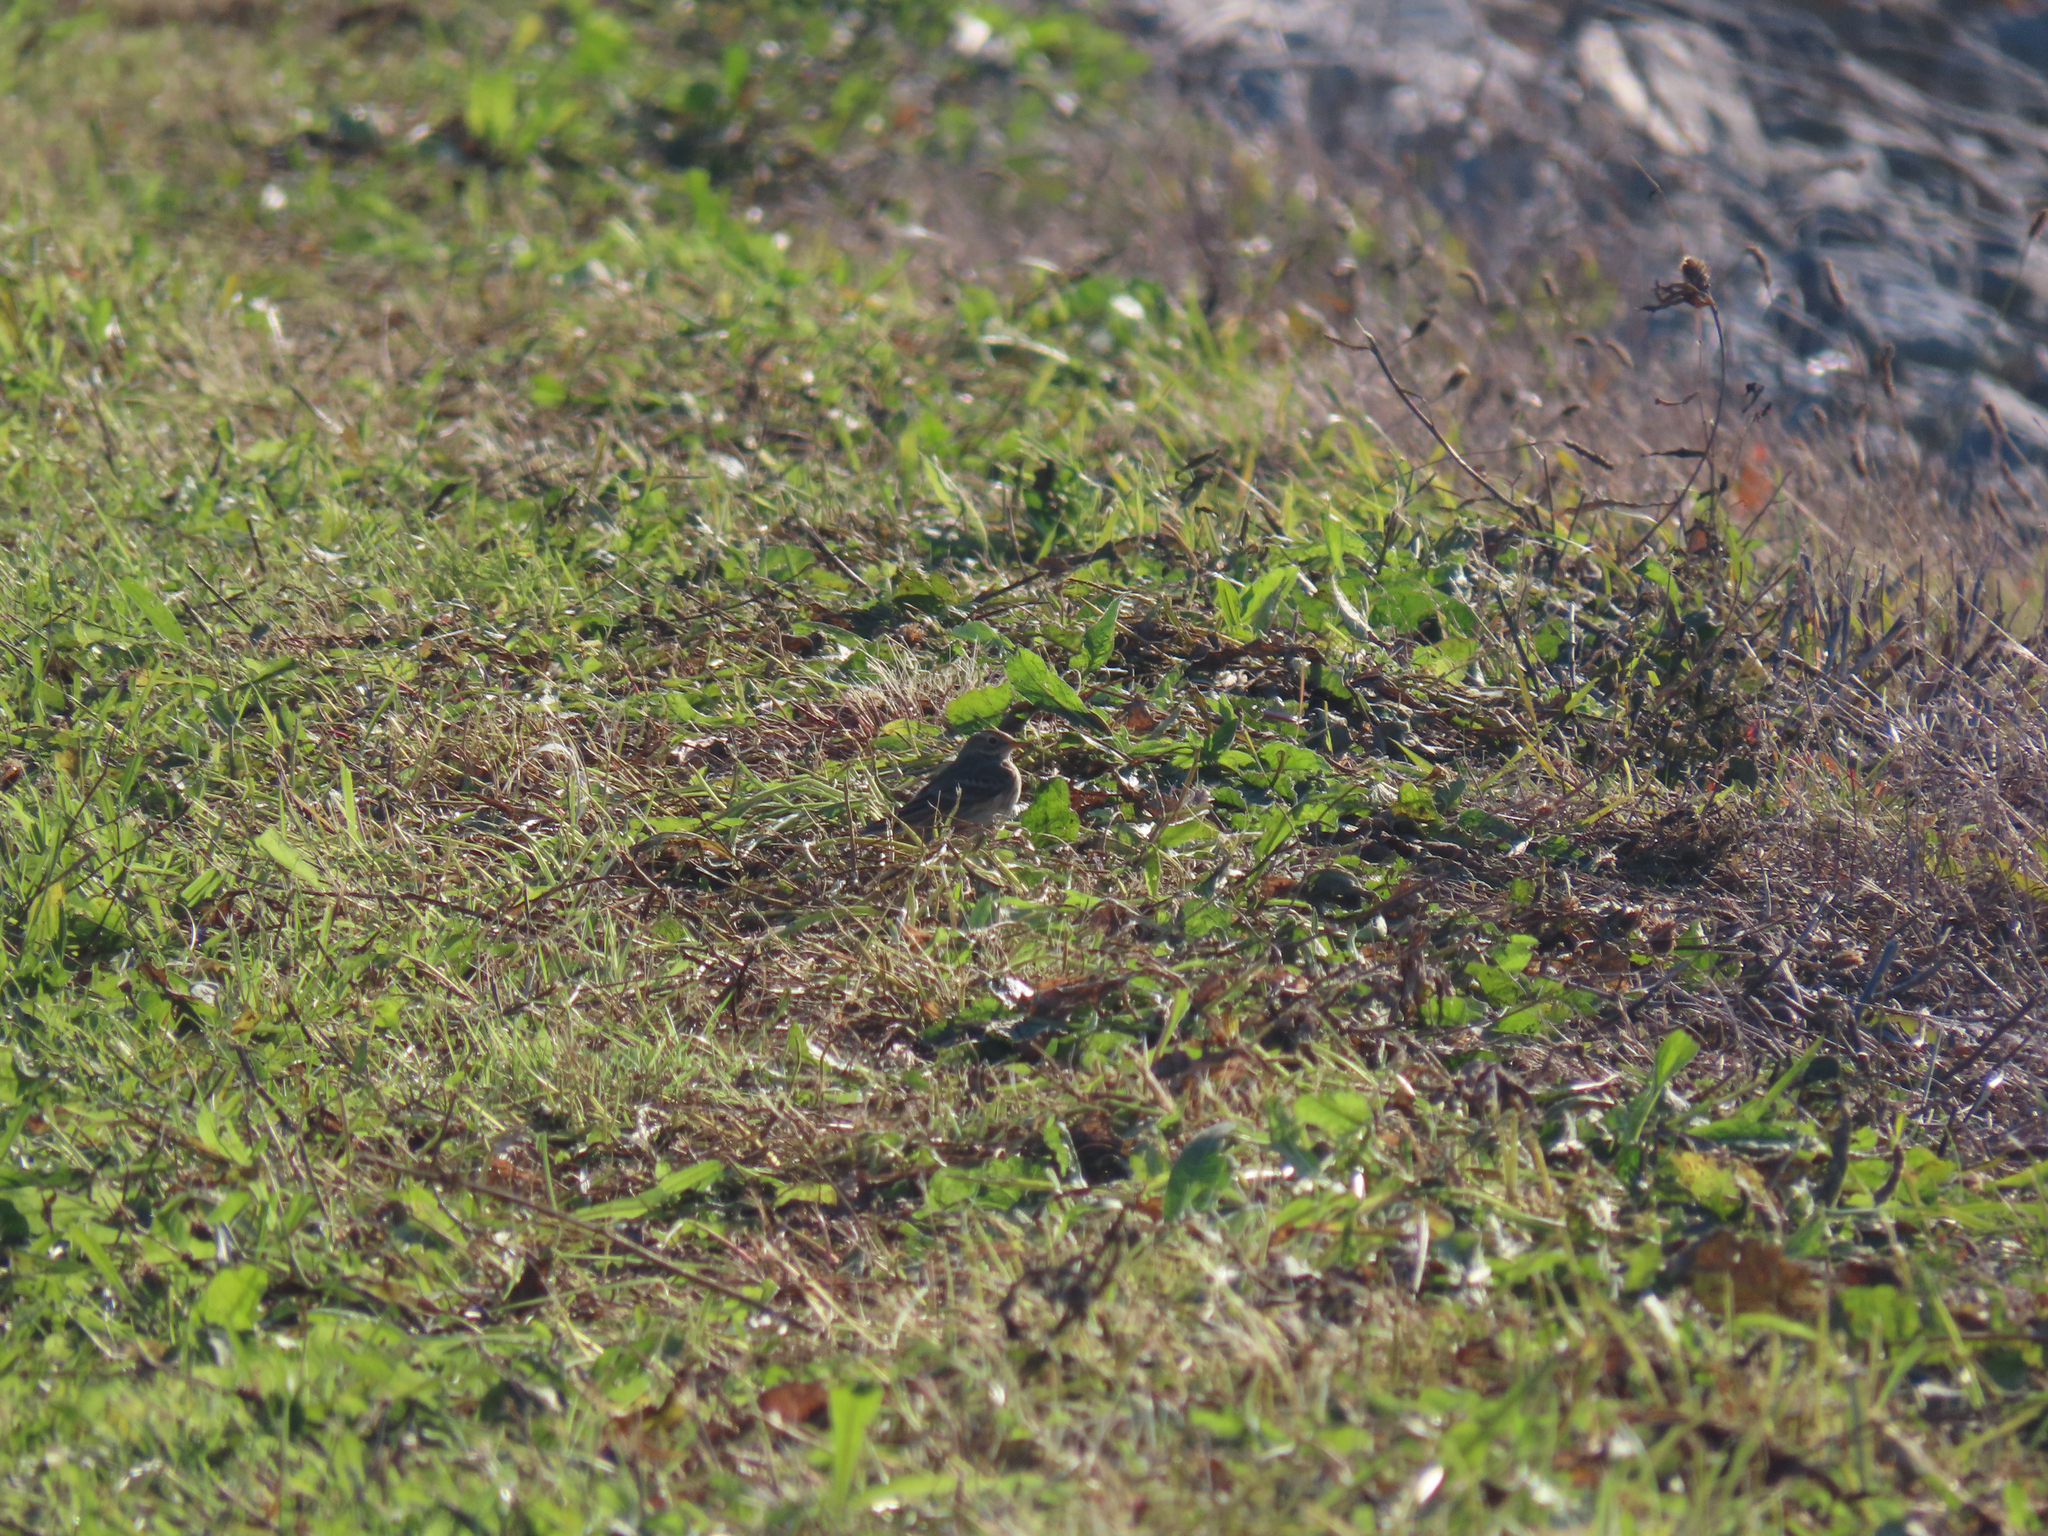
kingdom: Animalia
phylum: Chordata
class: Aves
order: Passeriformes
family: Motacillidae
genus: Anthus
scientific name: Anthus rubescens
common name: Buff-bellied pipit
